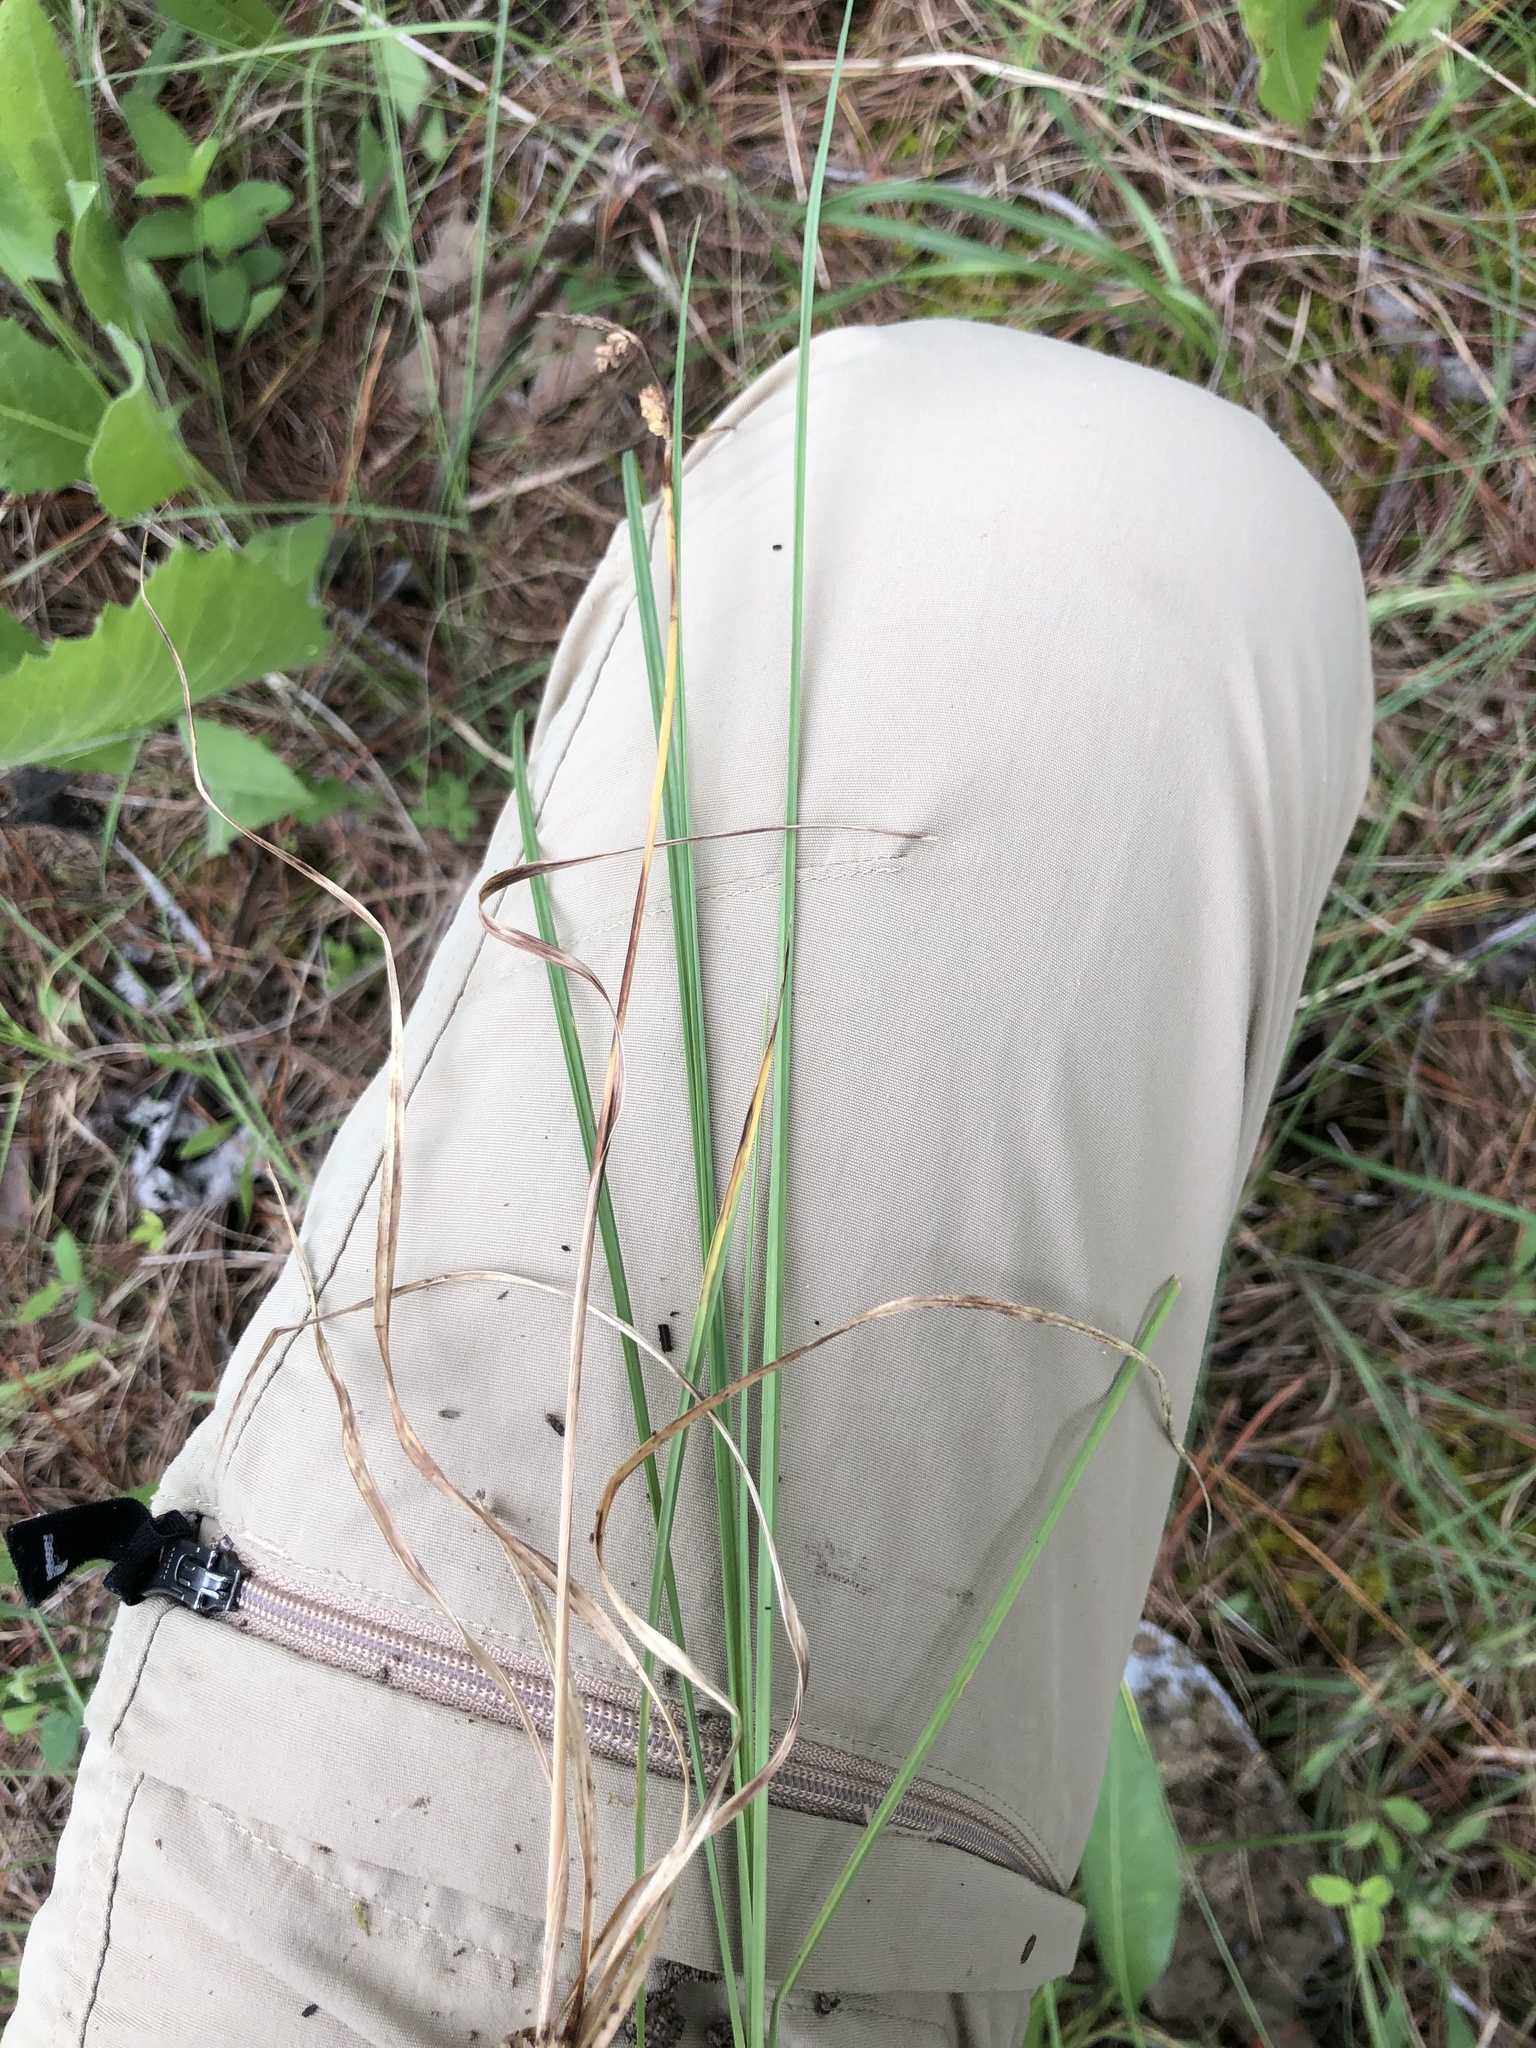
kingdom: Plantae
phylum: Tracheophyta
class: Liliopsida
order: Poales
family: Cyperaceae
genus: Carex
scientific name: Carex meadii
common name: Mead's sedge
